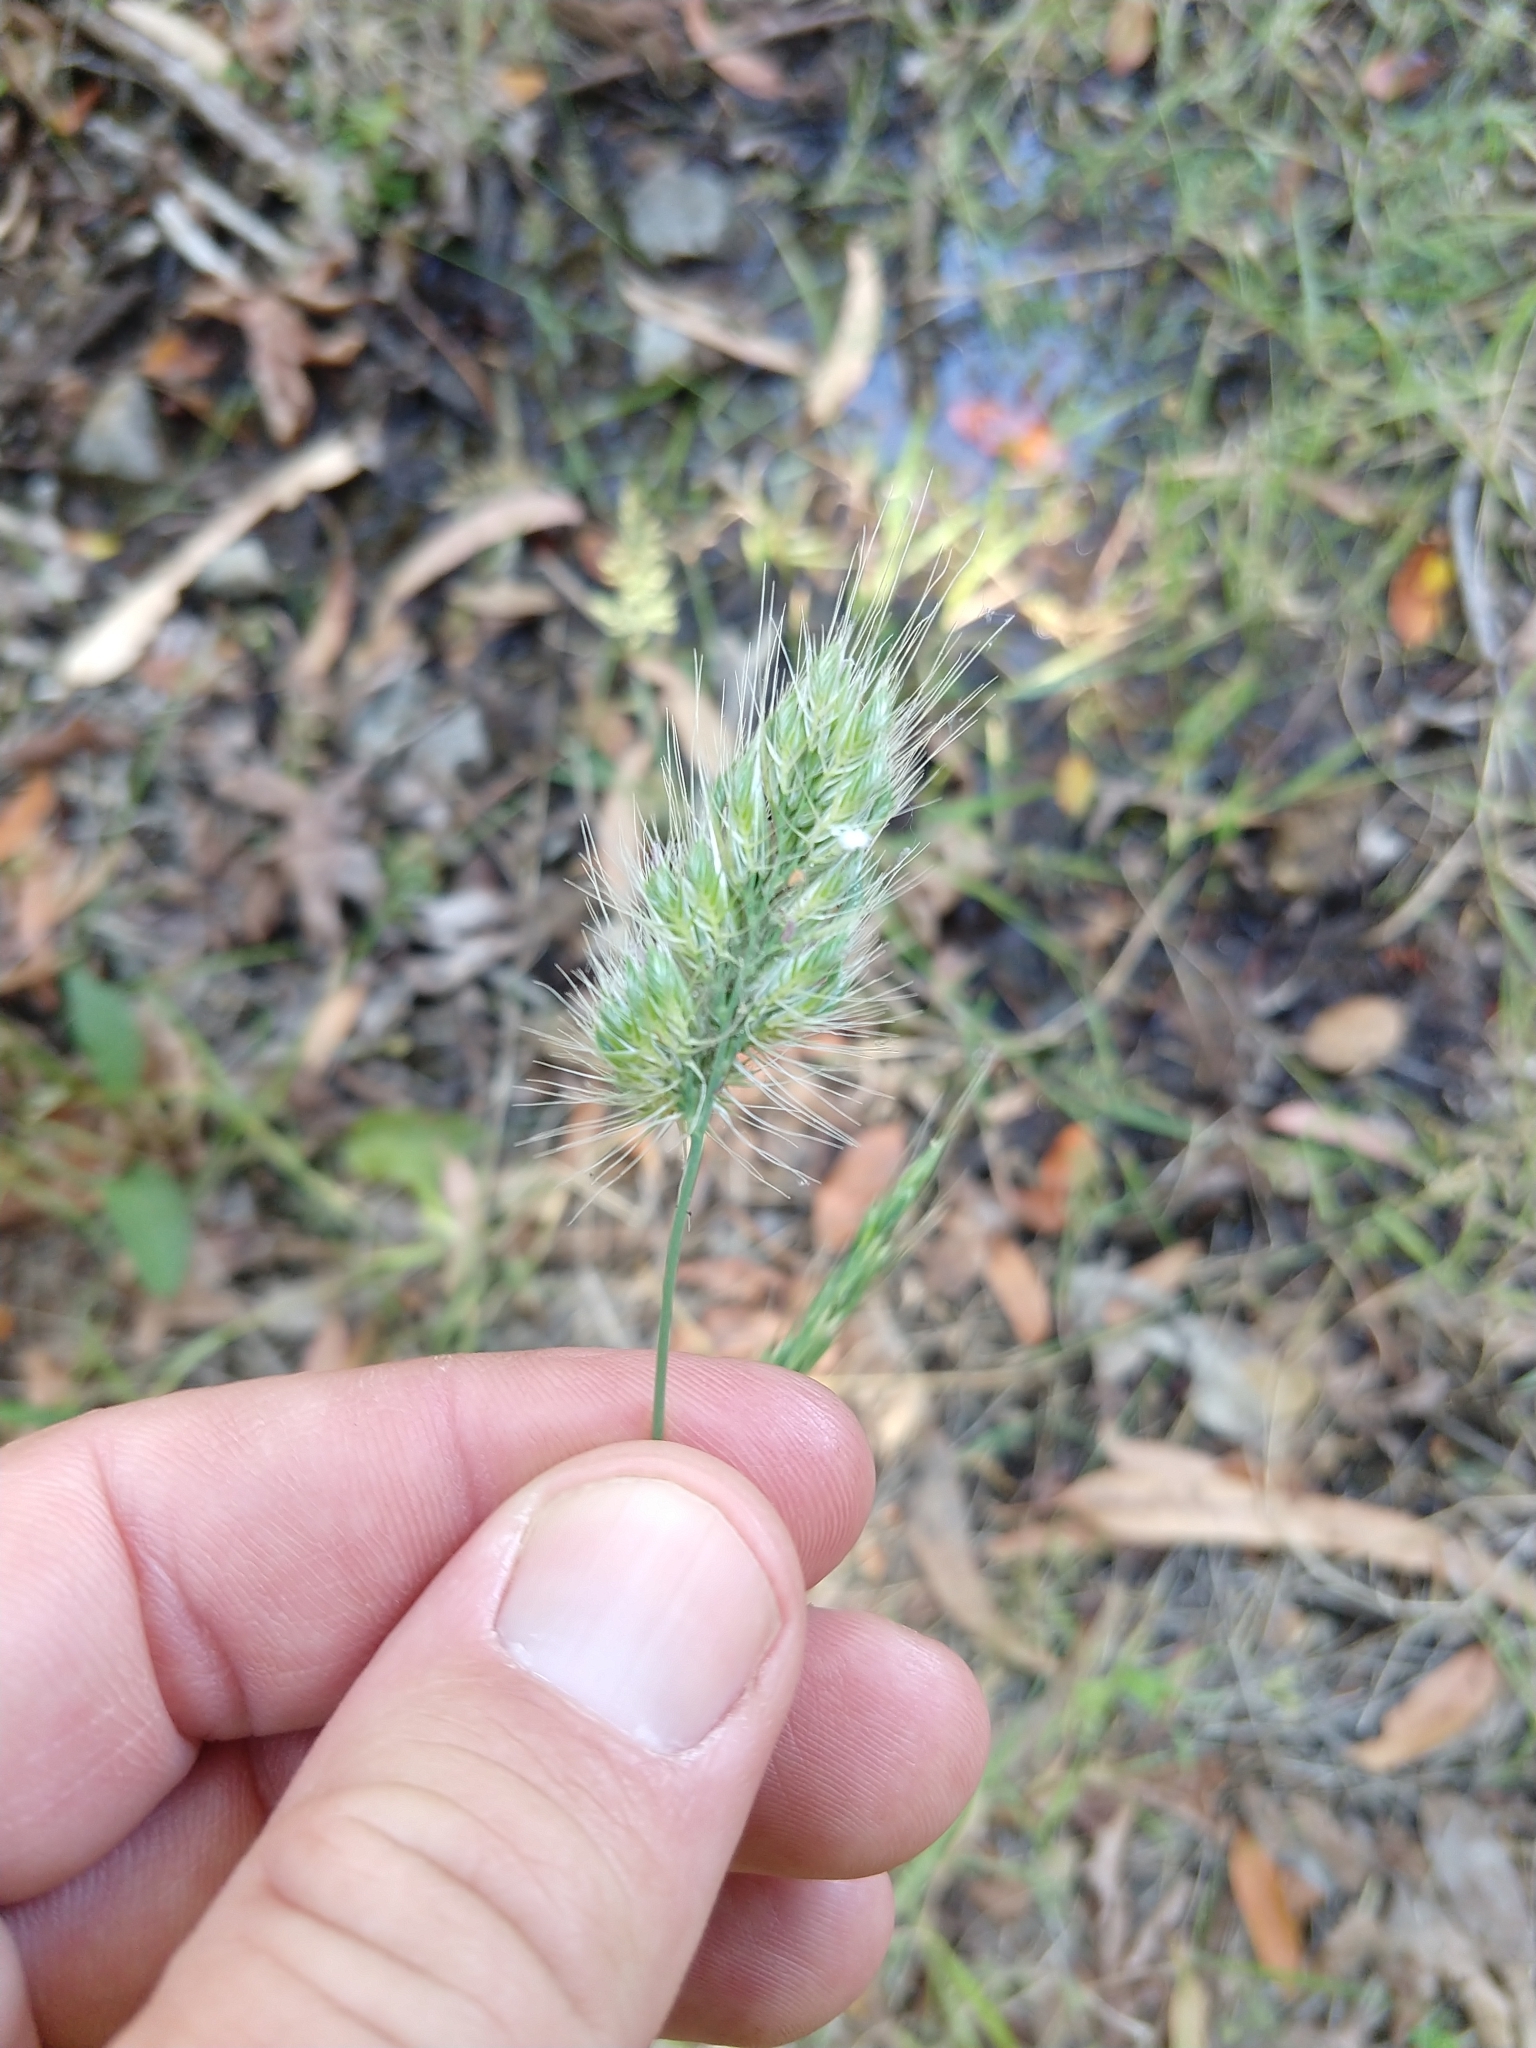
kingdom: Plantae
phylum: Tracheophyta
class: Liliopsida
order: Poales
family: Poaceae
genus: Cynosurus
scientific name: Cynosurus echinatus
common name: Rough dog's-tail
